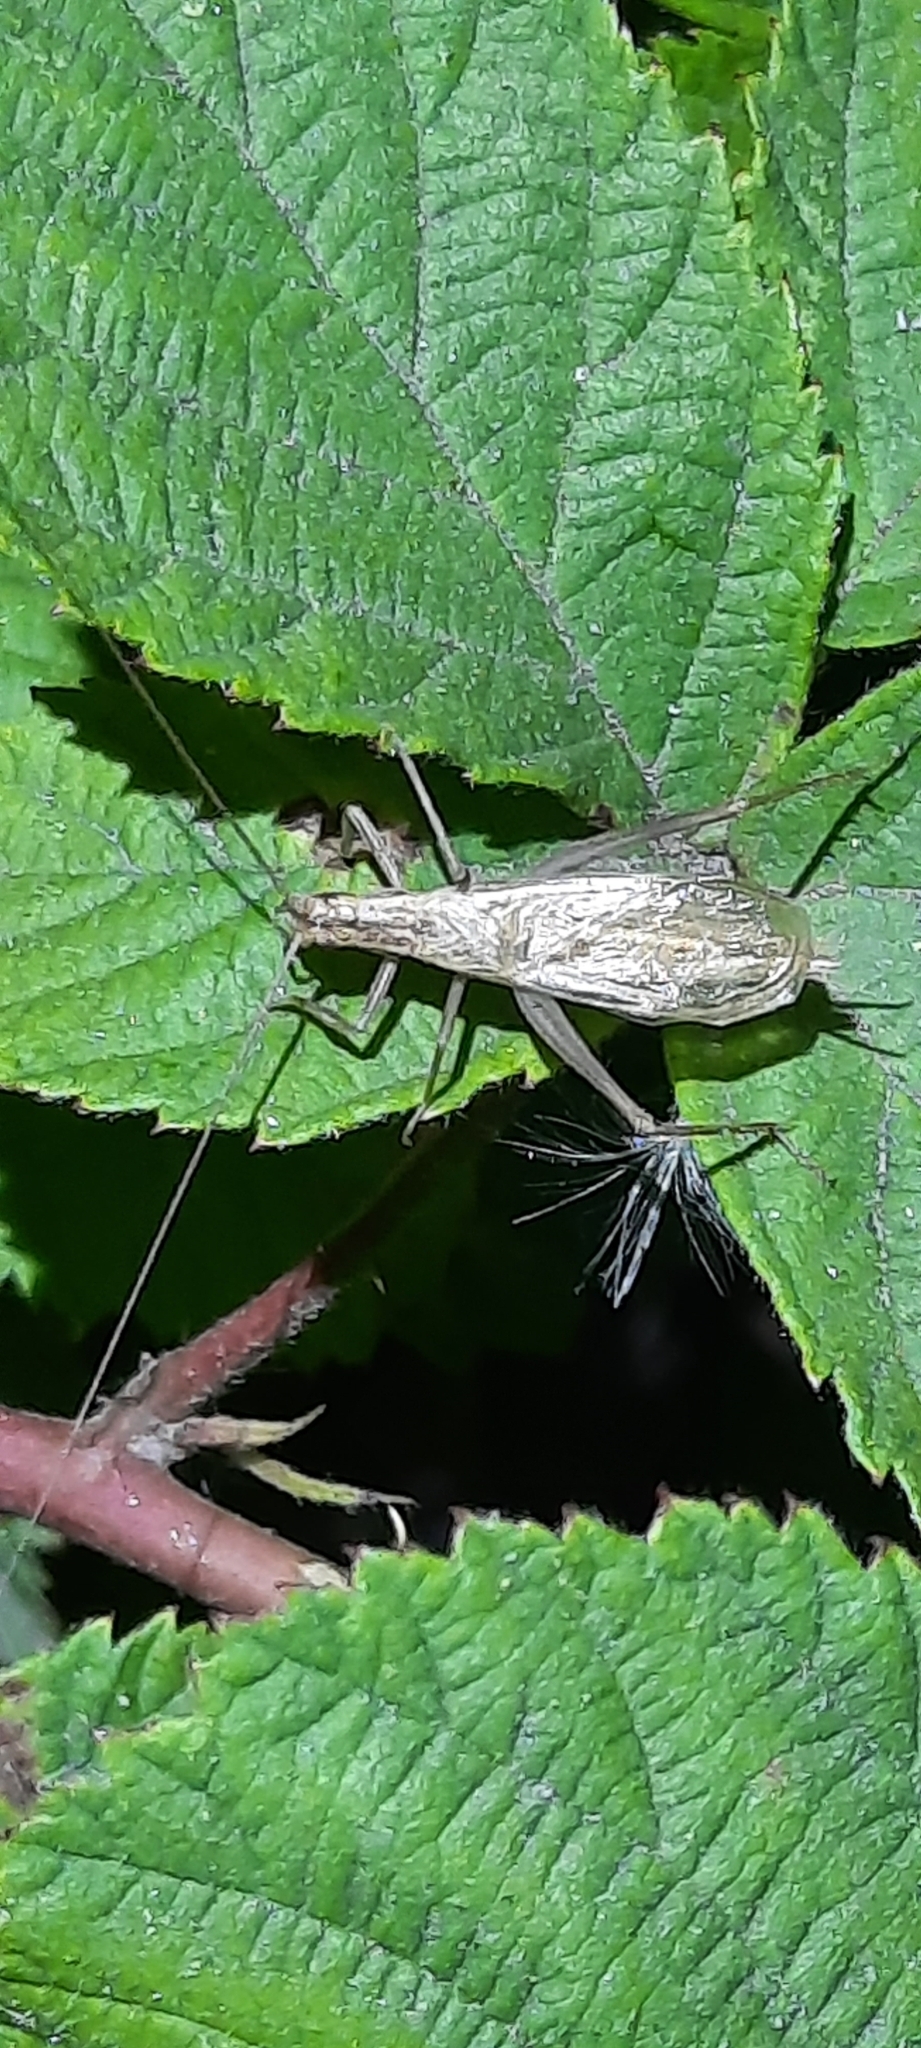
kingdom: Animalia
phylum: Arthropoda
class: Insecta
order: Orthoptera
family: Gryllidae
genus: Oecanthus
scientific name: Oecanthus pellucens
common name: Tree-cricket
